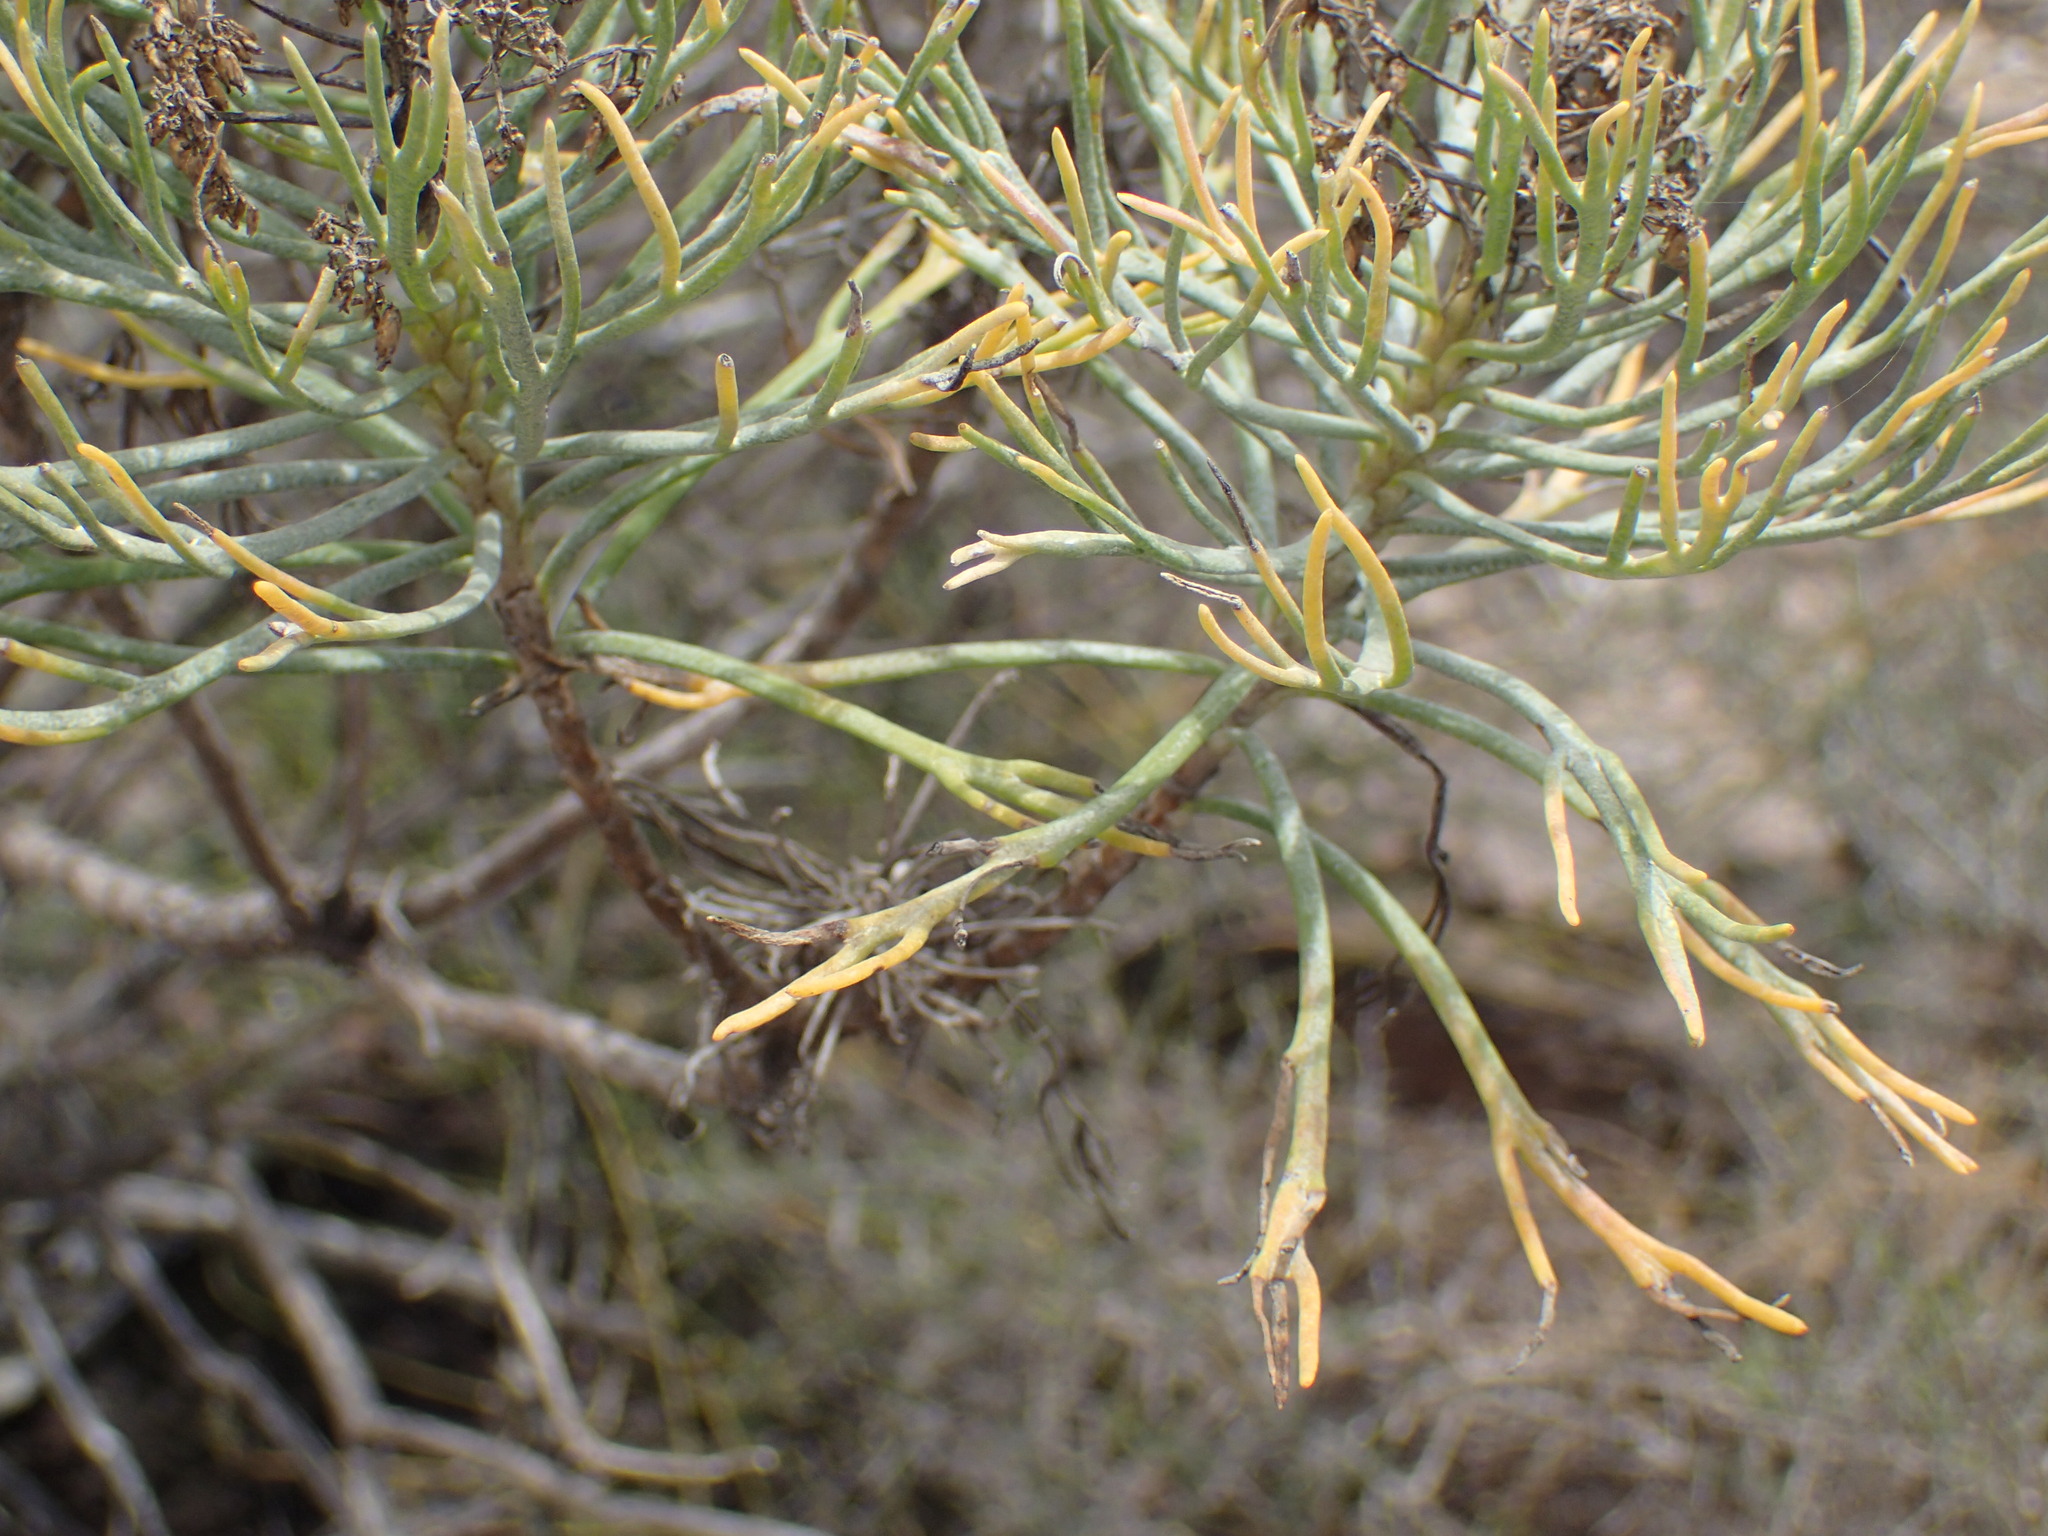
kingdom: Plantae
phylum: Tracheophyta
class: Magnoliopsida
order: Asterales
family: Asteraceae
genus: Hymenolepis
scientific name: Hymenolepis crithmifolia
